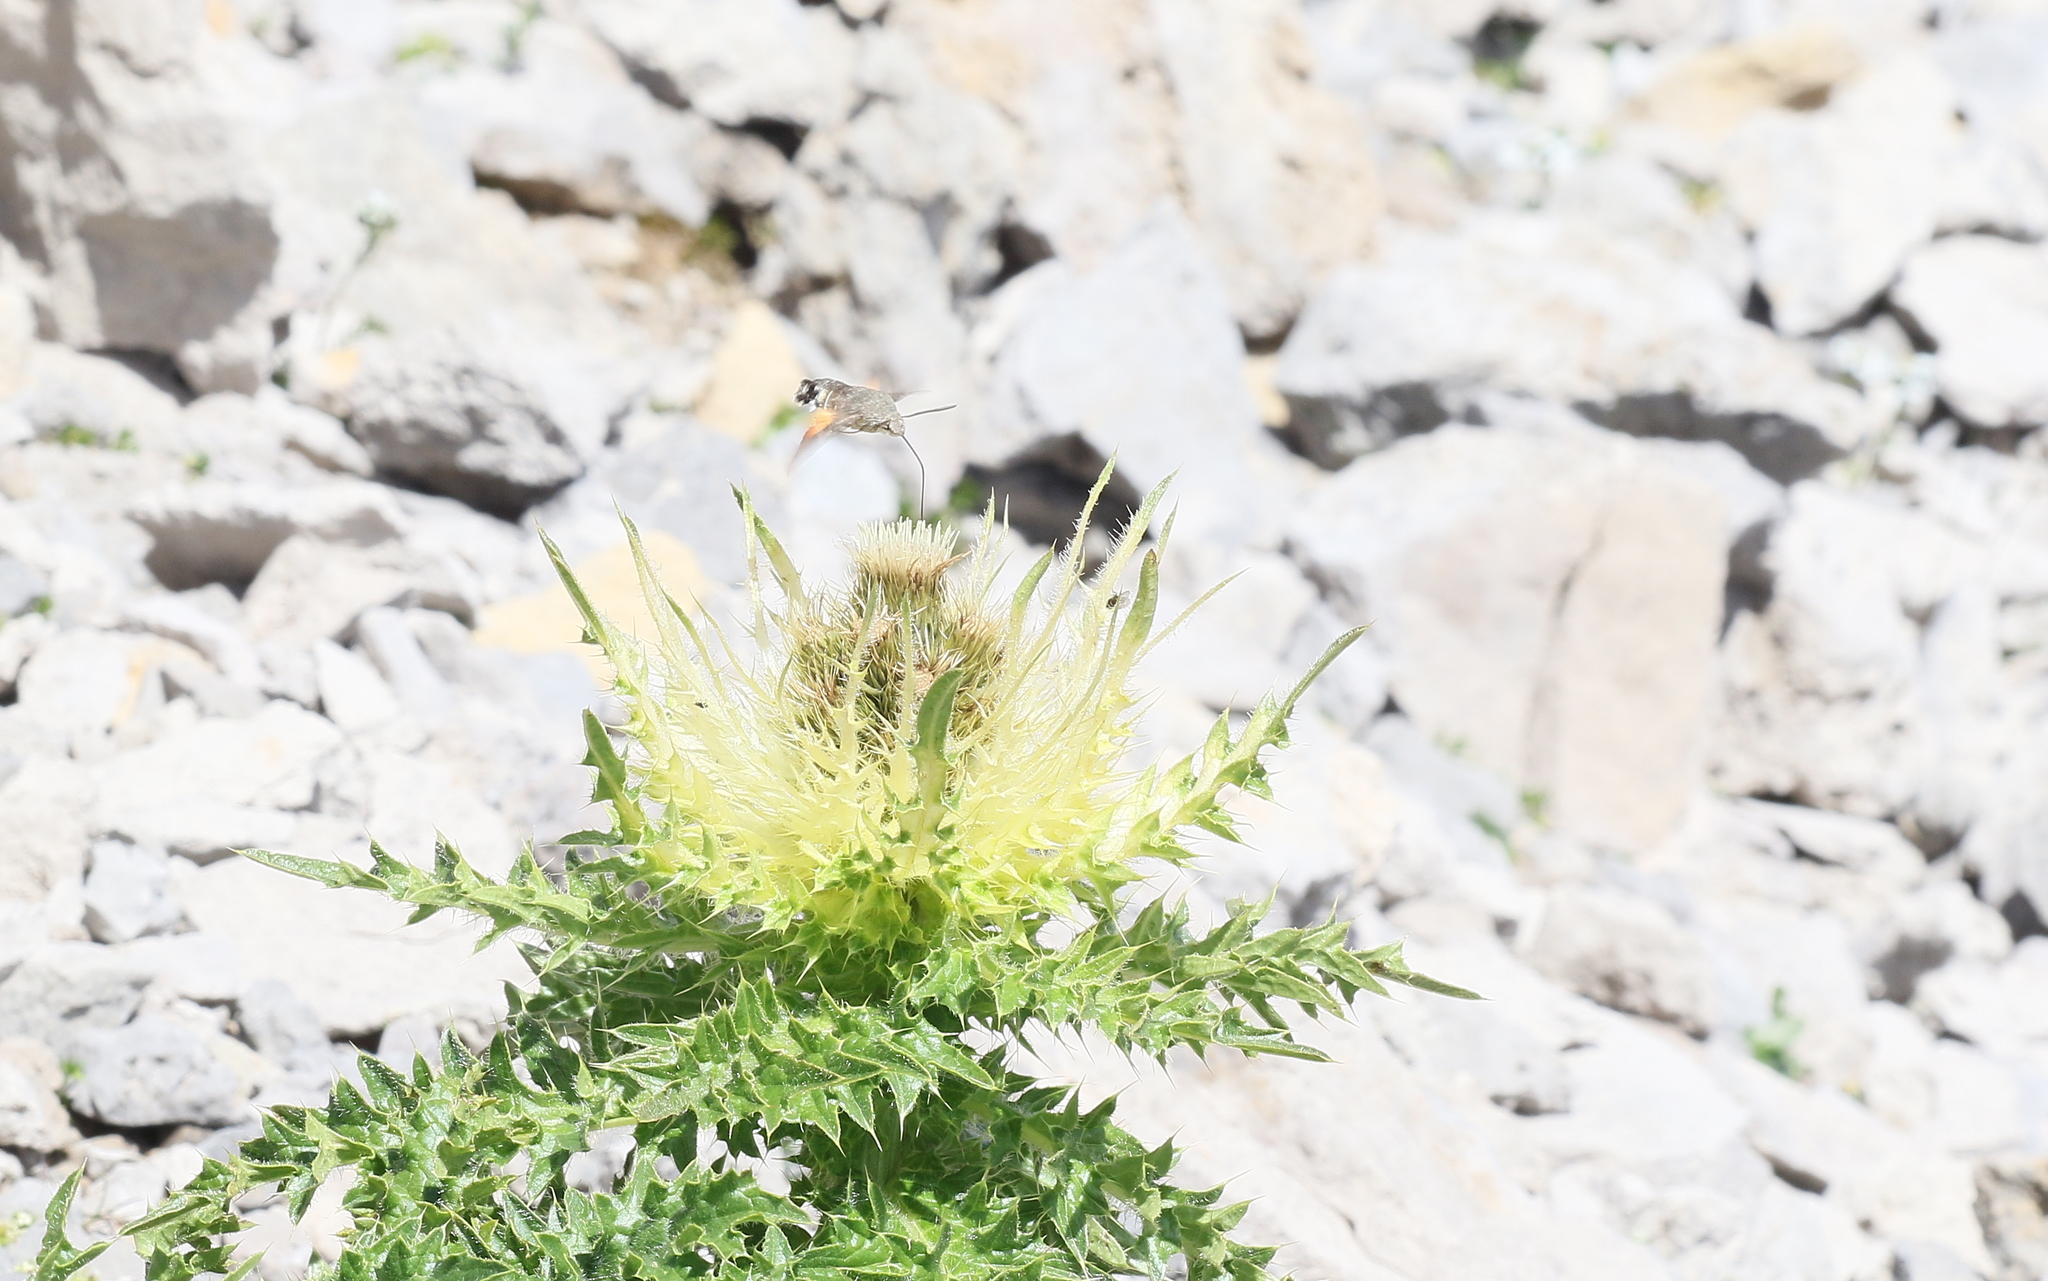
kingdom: Animalia
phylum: Arthropoda
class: Insecta
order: Lepidoptera
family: Sphingidae
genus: Macroglossum
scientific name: Macroglossum stellatarum
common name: Humming-bird hawk-moth
